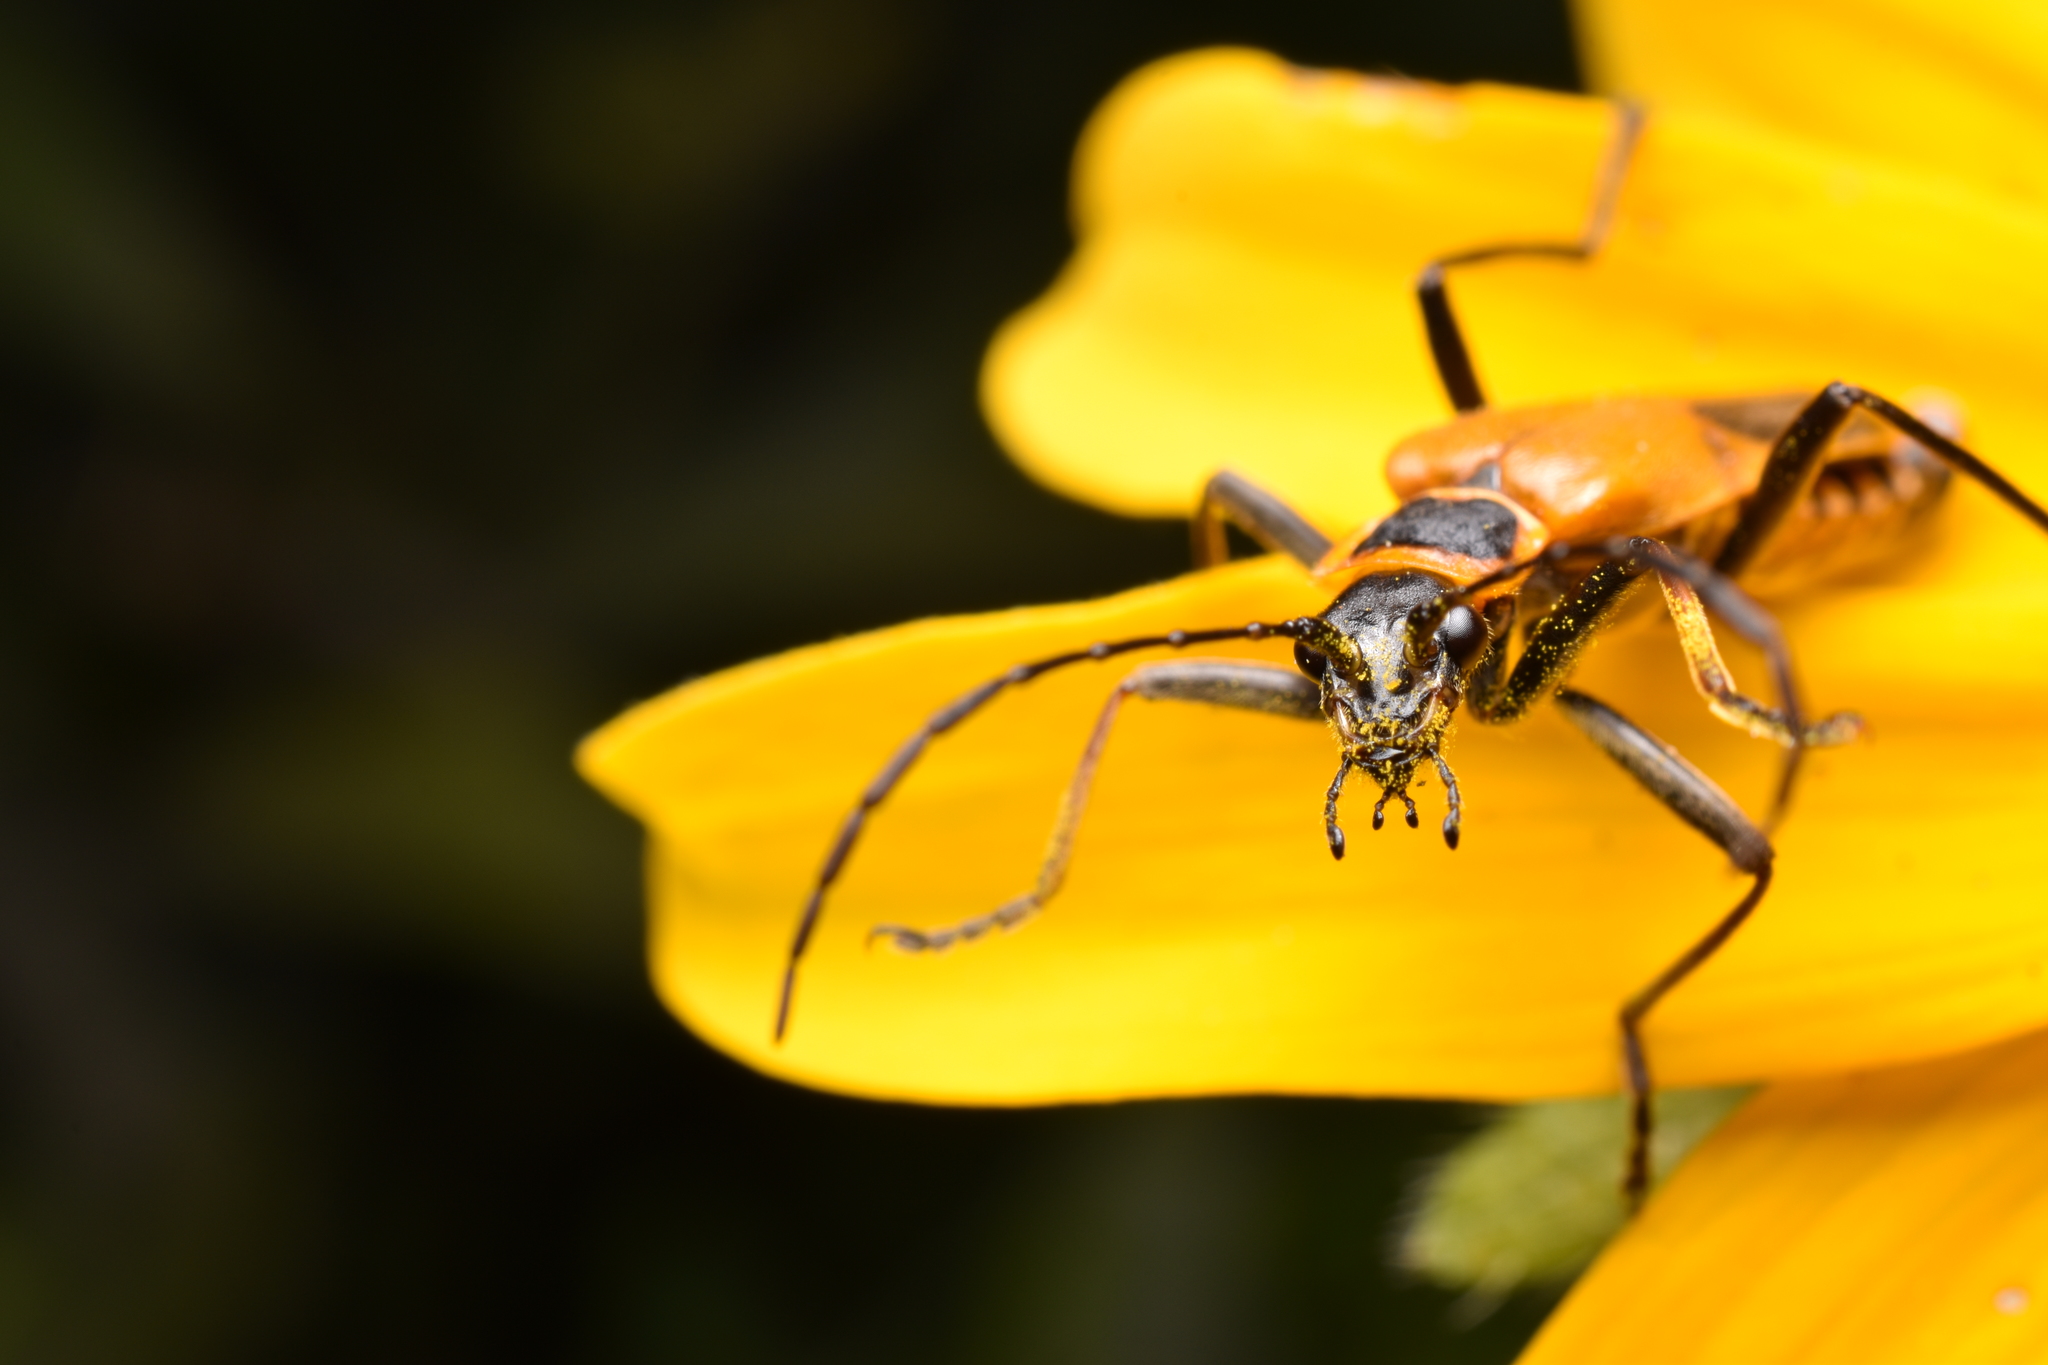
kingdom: Animalia
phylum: Arthropoda
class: Insecta
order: Coleoptera
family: Cantharidae
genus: Chauliognathus
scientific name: Chauliognathus pensylvanicus
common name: Goldenrod soldier beetle
